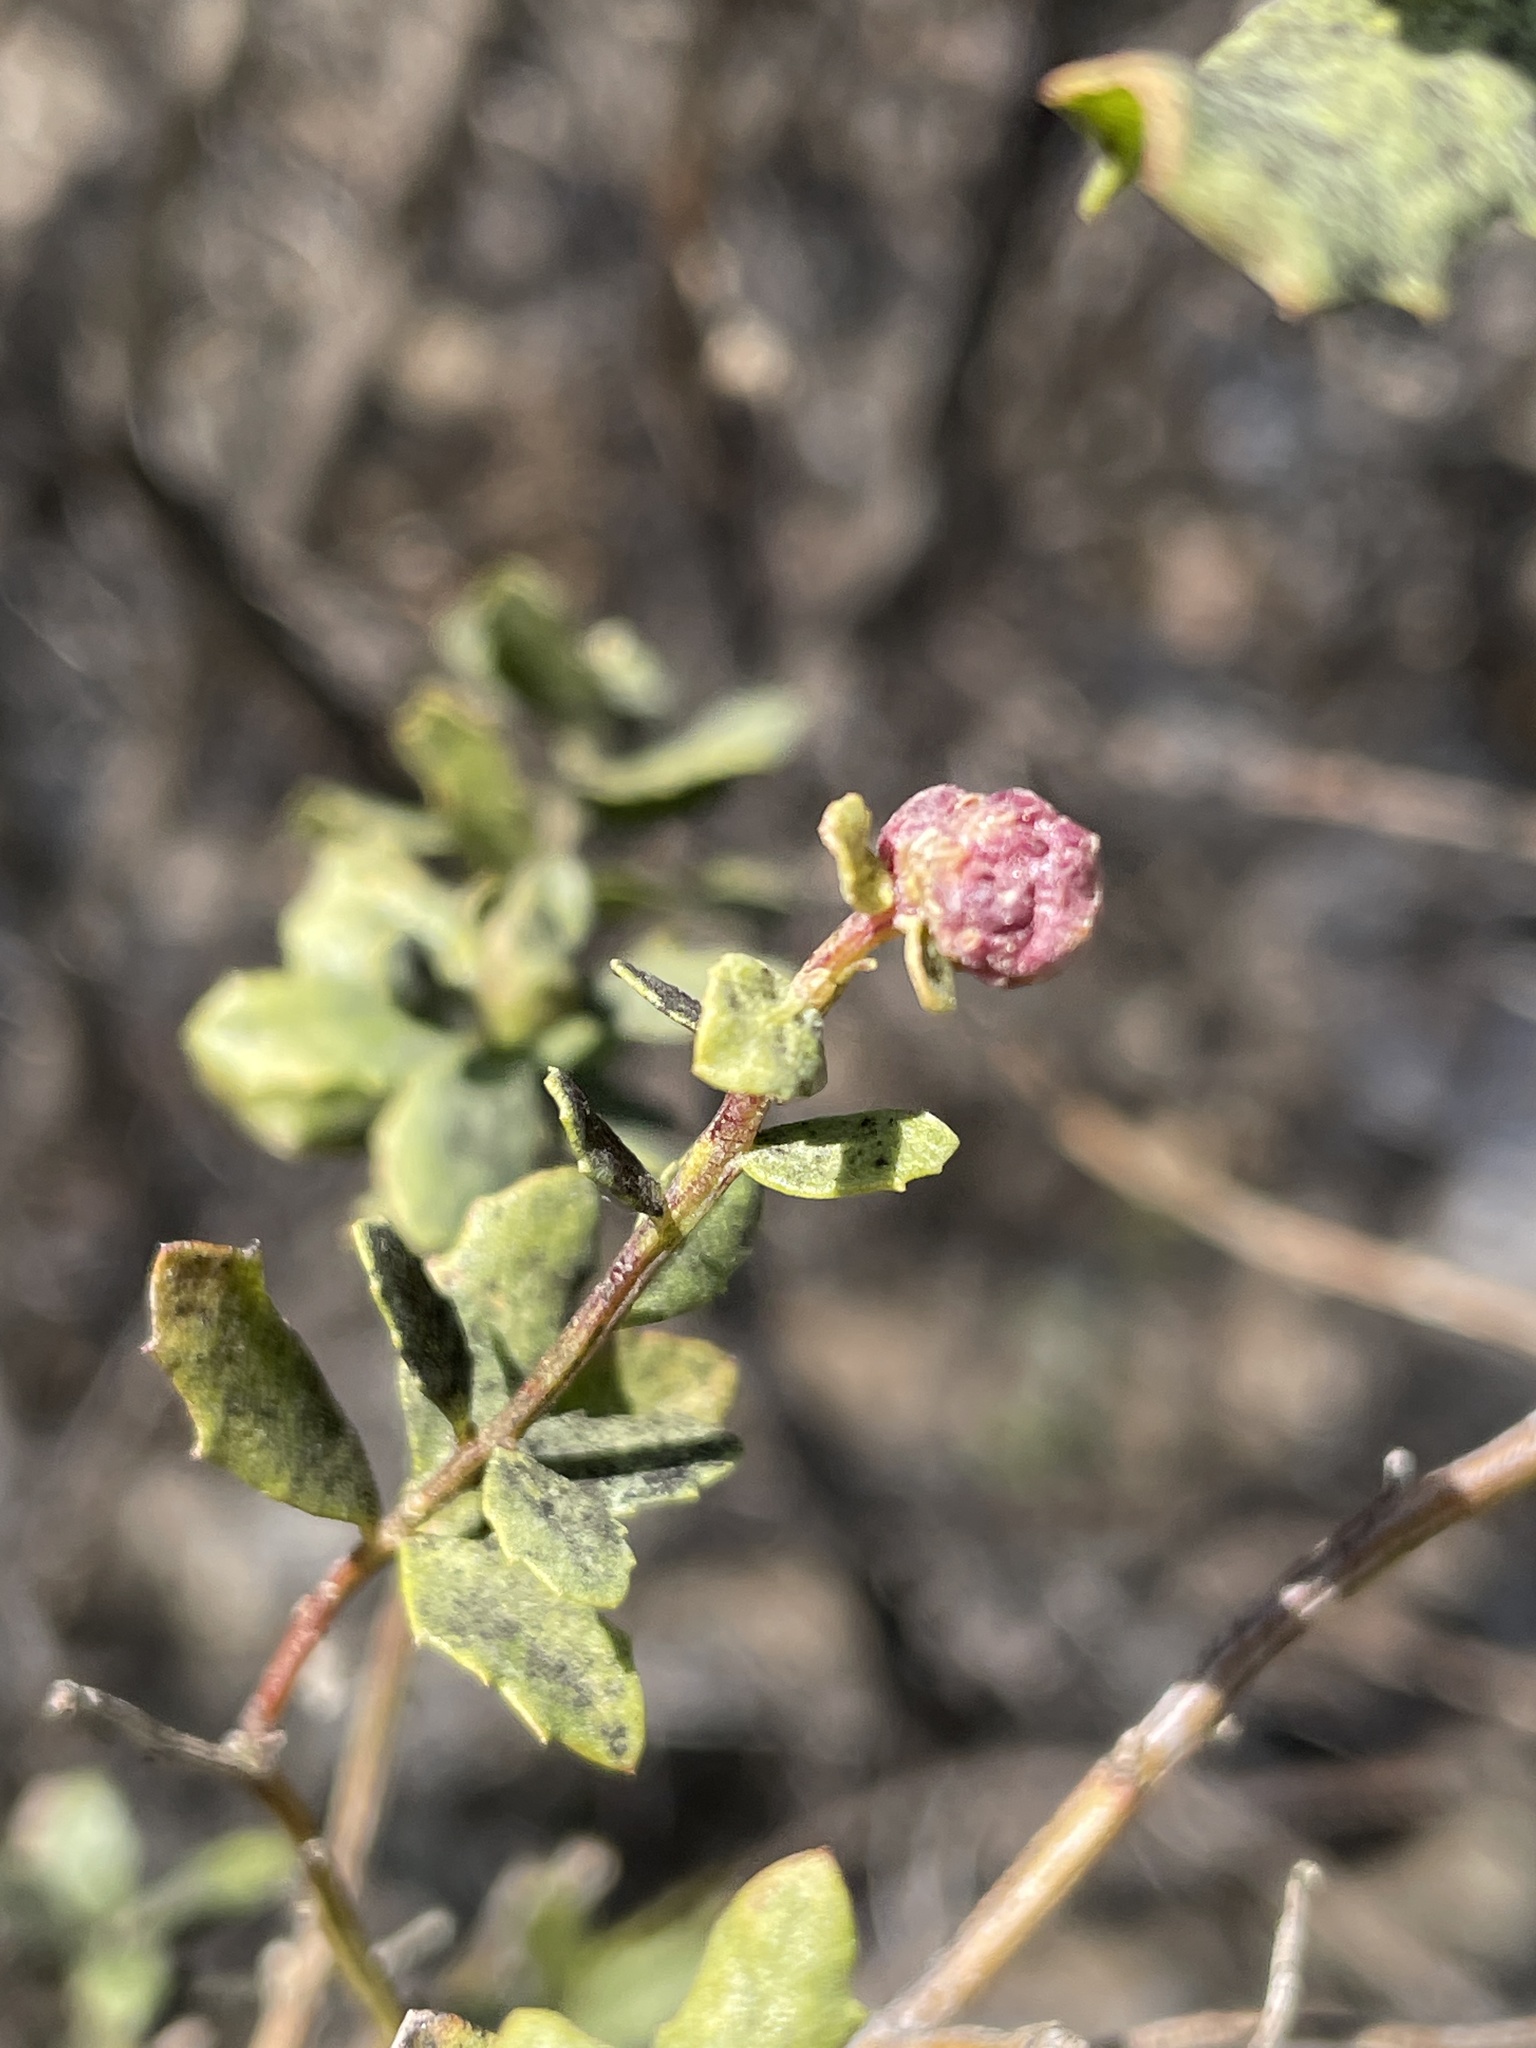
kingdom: Animalia
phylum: Arthropoda
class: Insecta
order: Diptera
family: Cecidomyiidae
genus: Rhopalomyia
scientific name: Rhopalomyia californica
